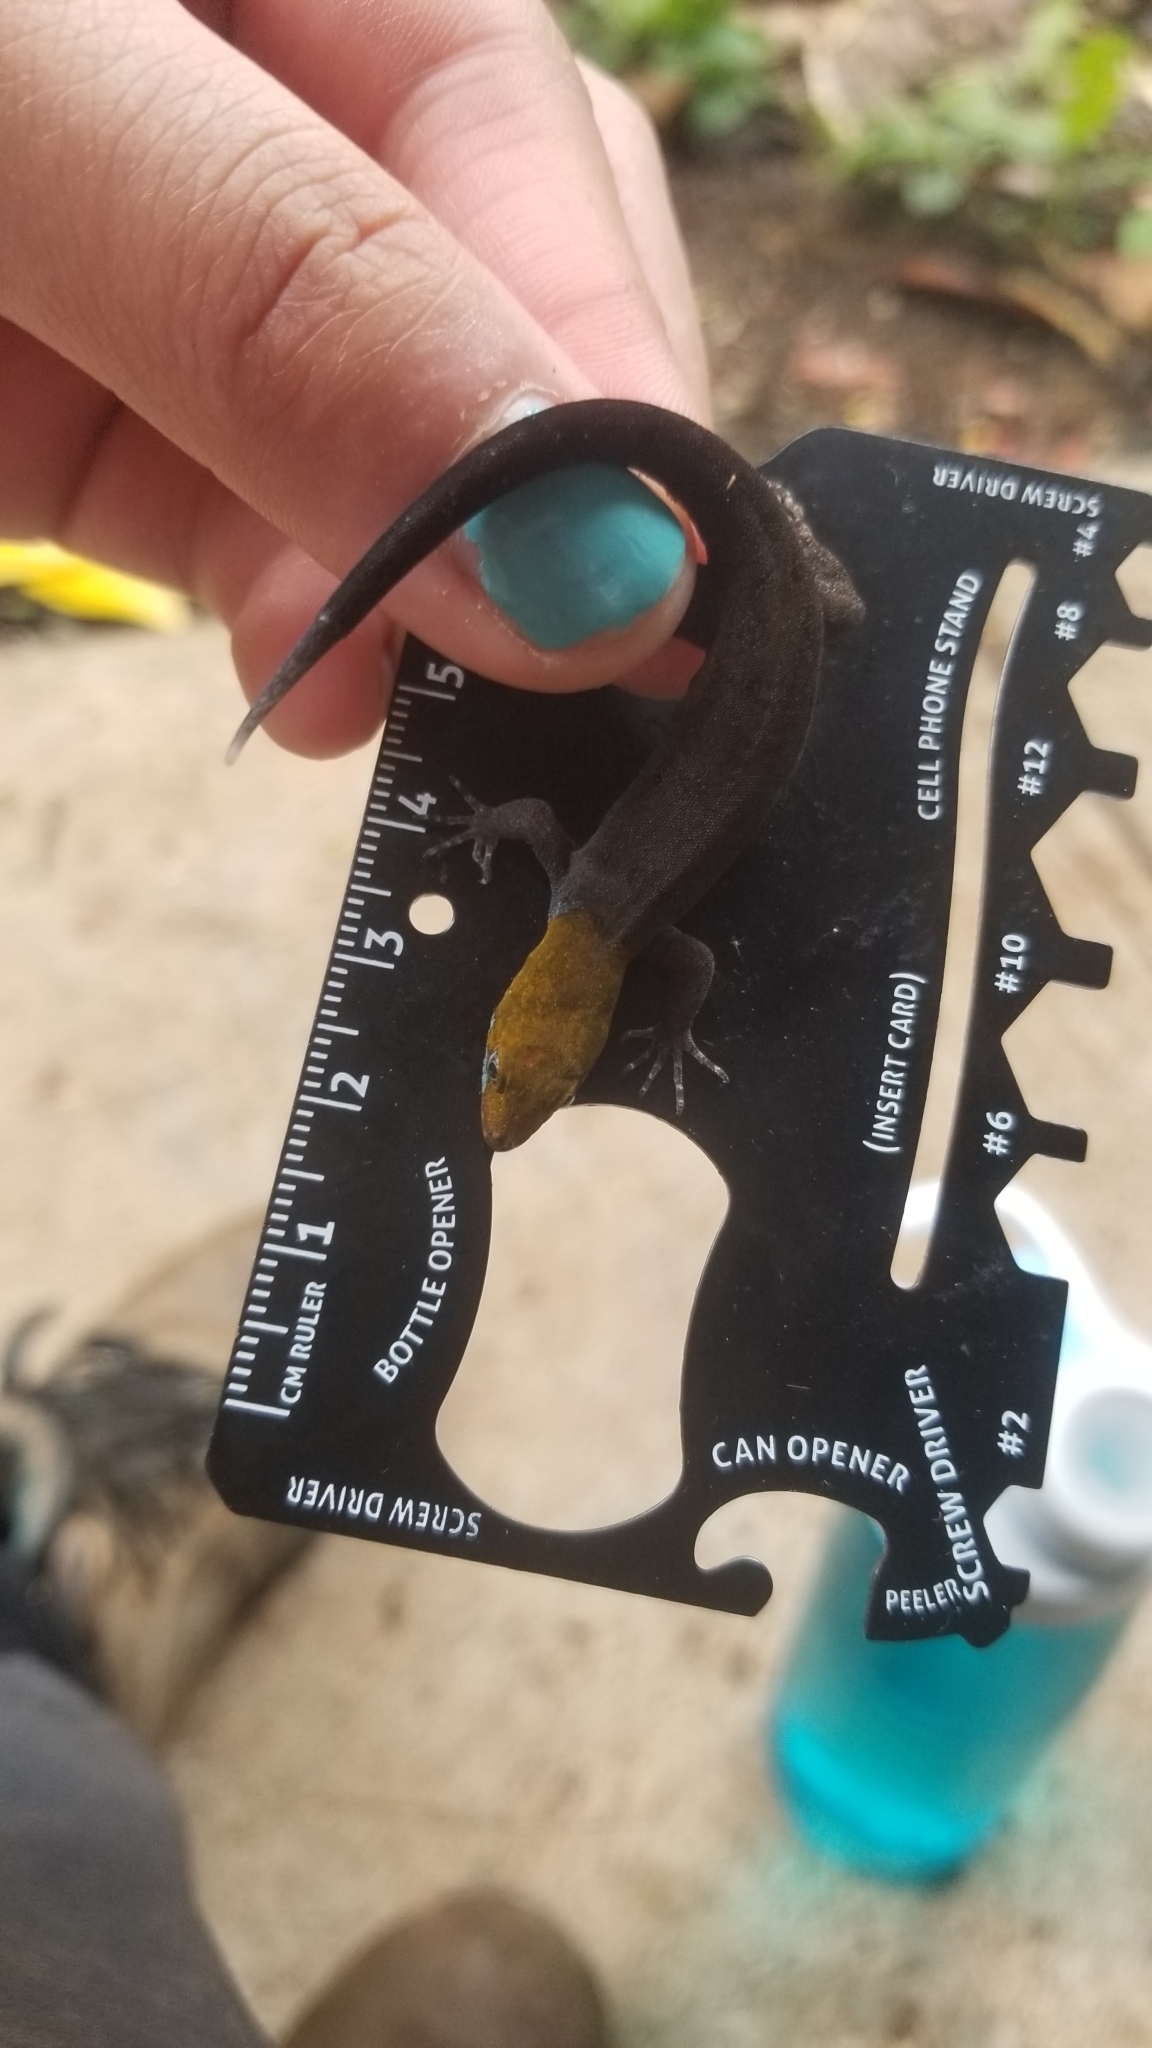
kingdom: Animalia
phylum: Chordata
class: Squamata
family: Sphaerodactylidae
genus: Gonatodes
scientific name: Gonatodes albogularis
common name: Yellow-headed gecko
